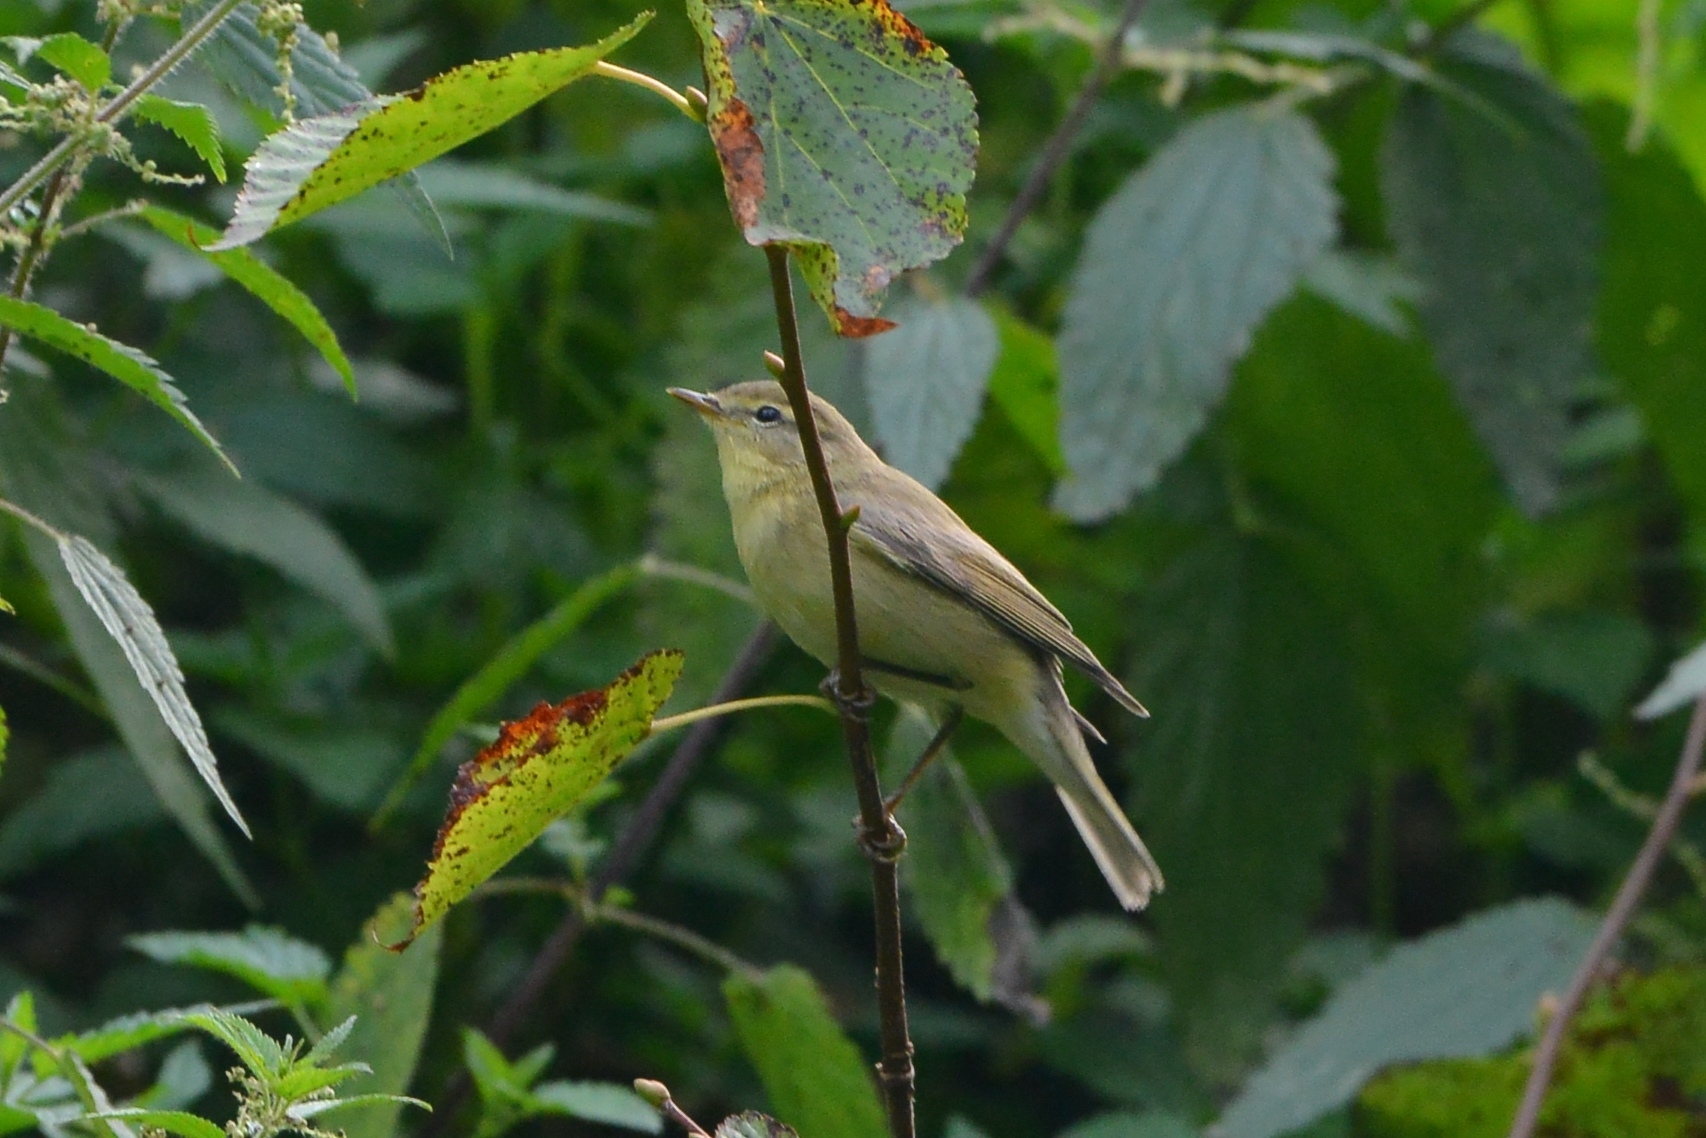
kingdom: Animalia
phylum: Chordata
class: Aves
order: Passeriformes
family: Phylloscopidae
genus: Phylloscopus
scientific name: Phylloscopus trochilus
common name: Willow warbler
